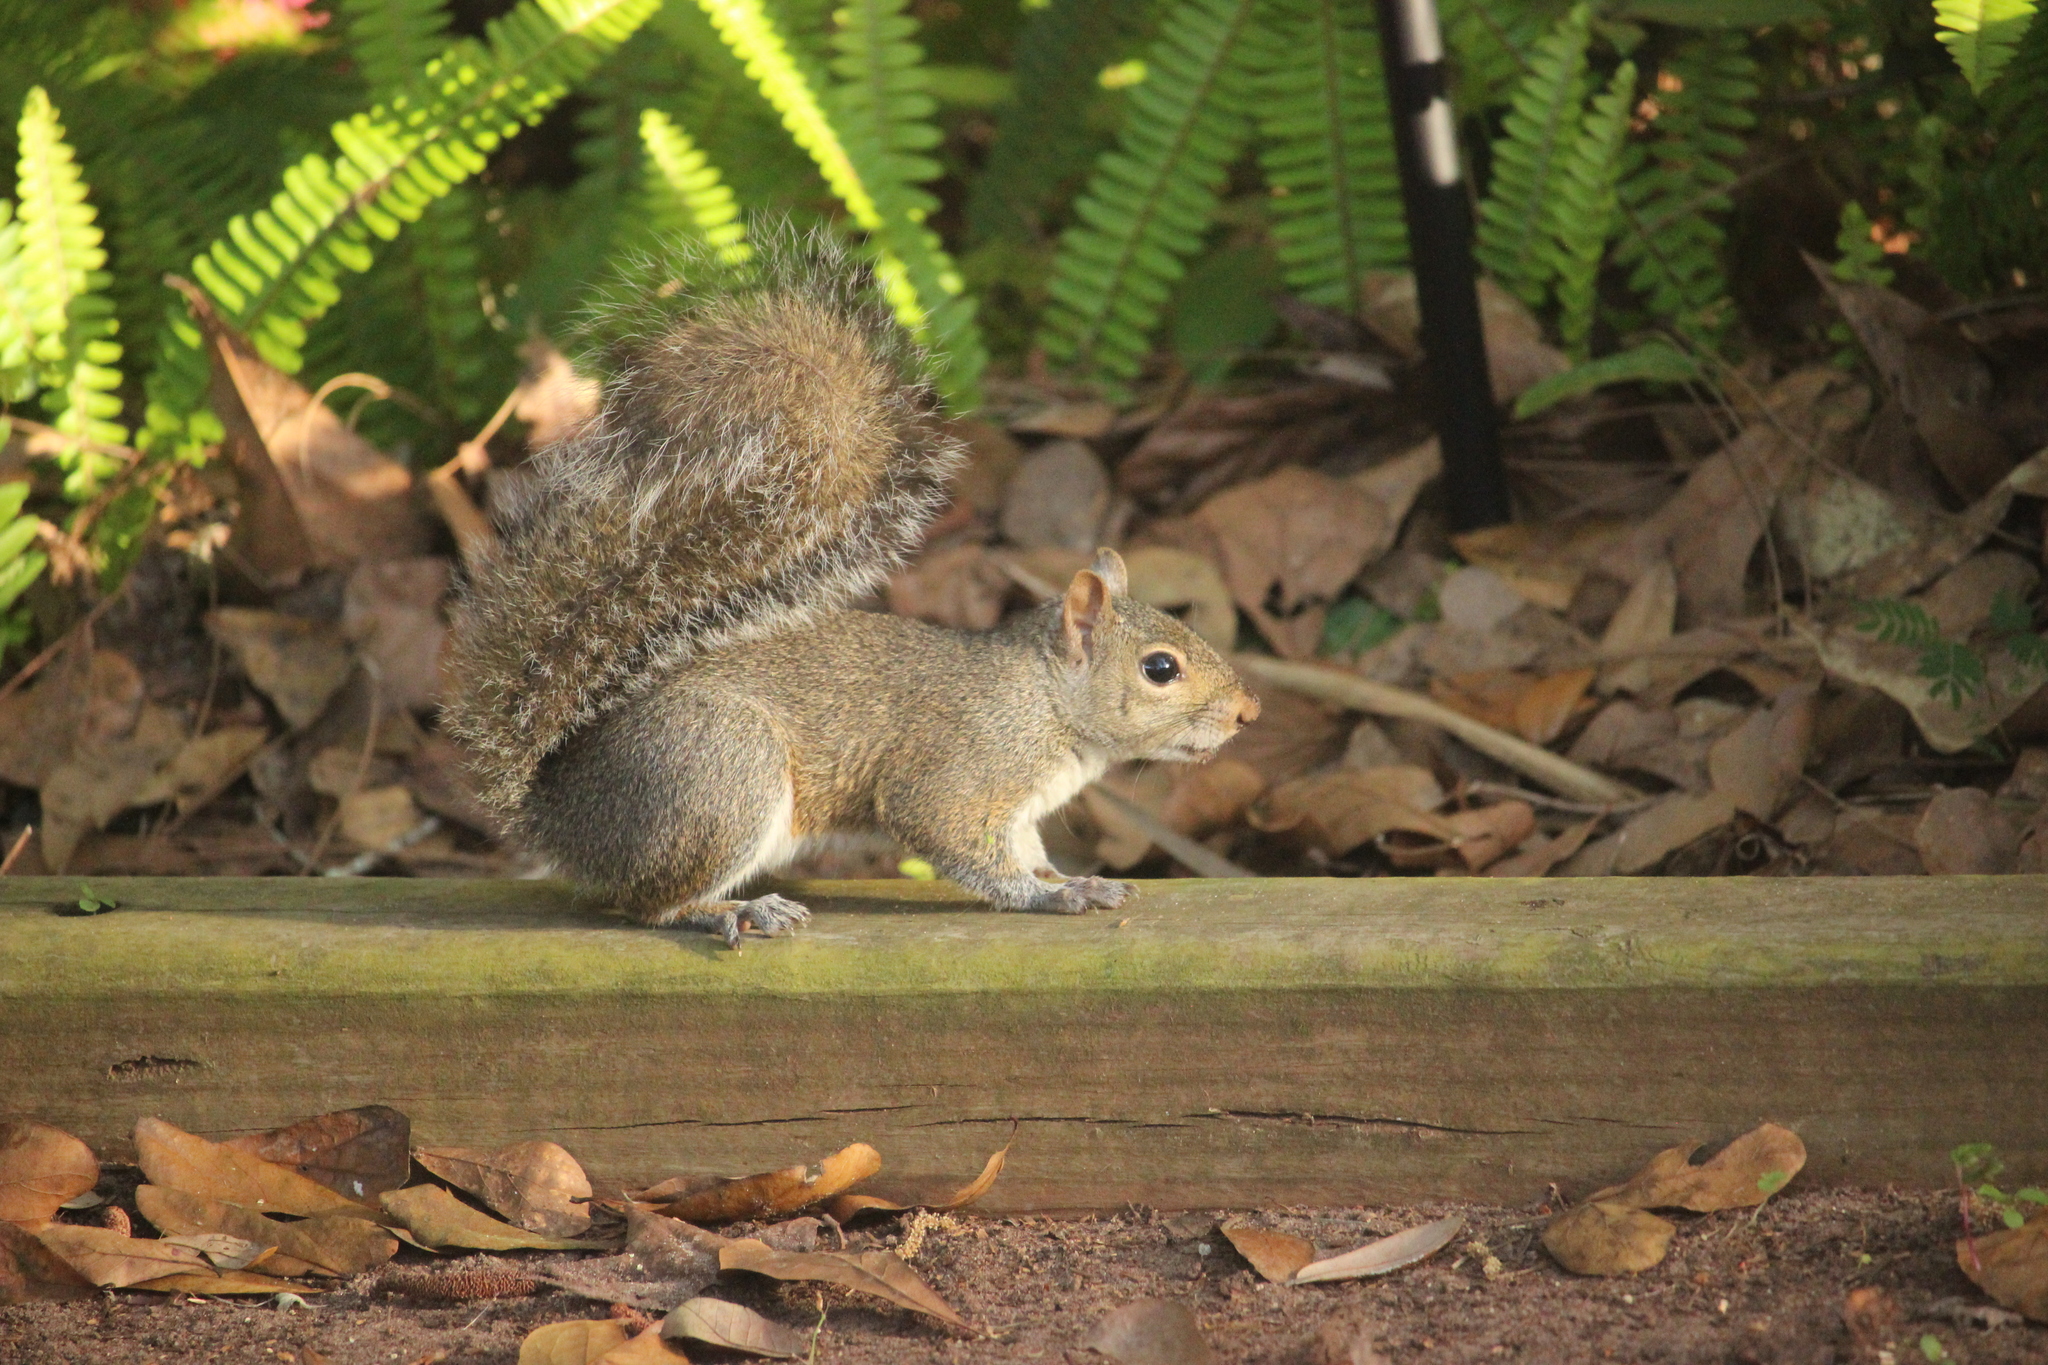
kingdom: Animalia
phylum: Chordata
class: Mammalia
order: Rodentia
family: Sciuridae
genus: Sciurus
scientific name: Sciurus carolinensis
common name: Eastern gray squirrel
